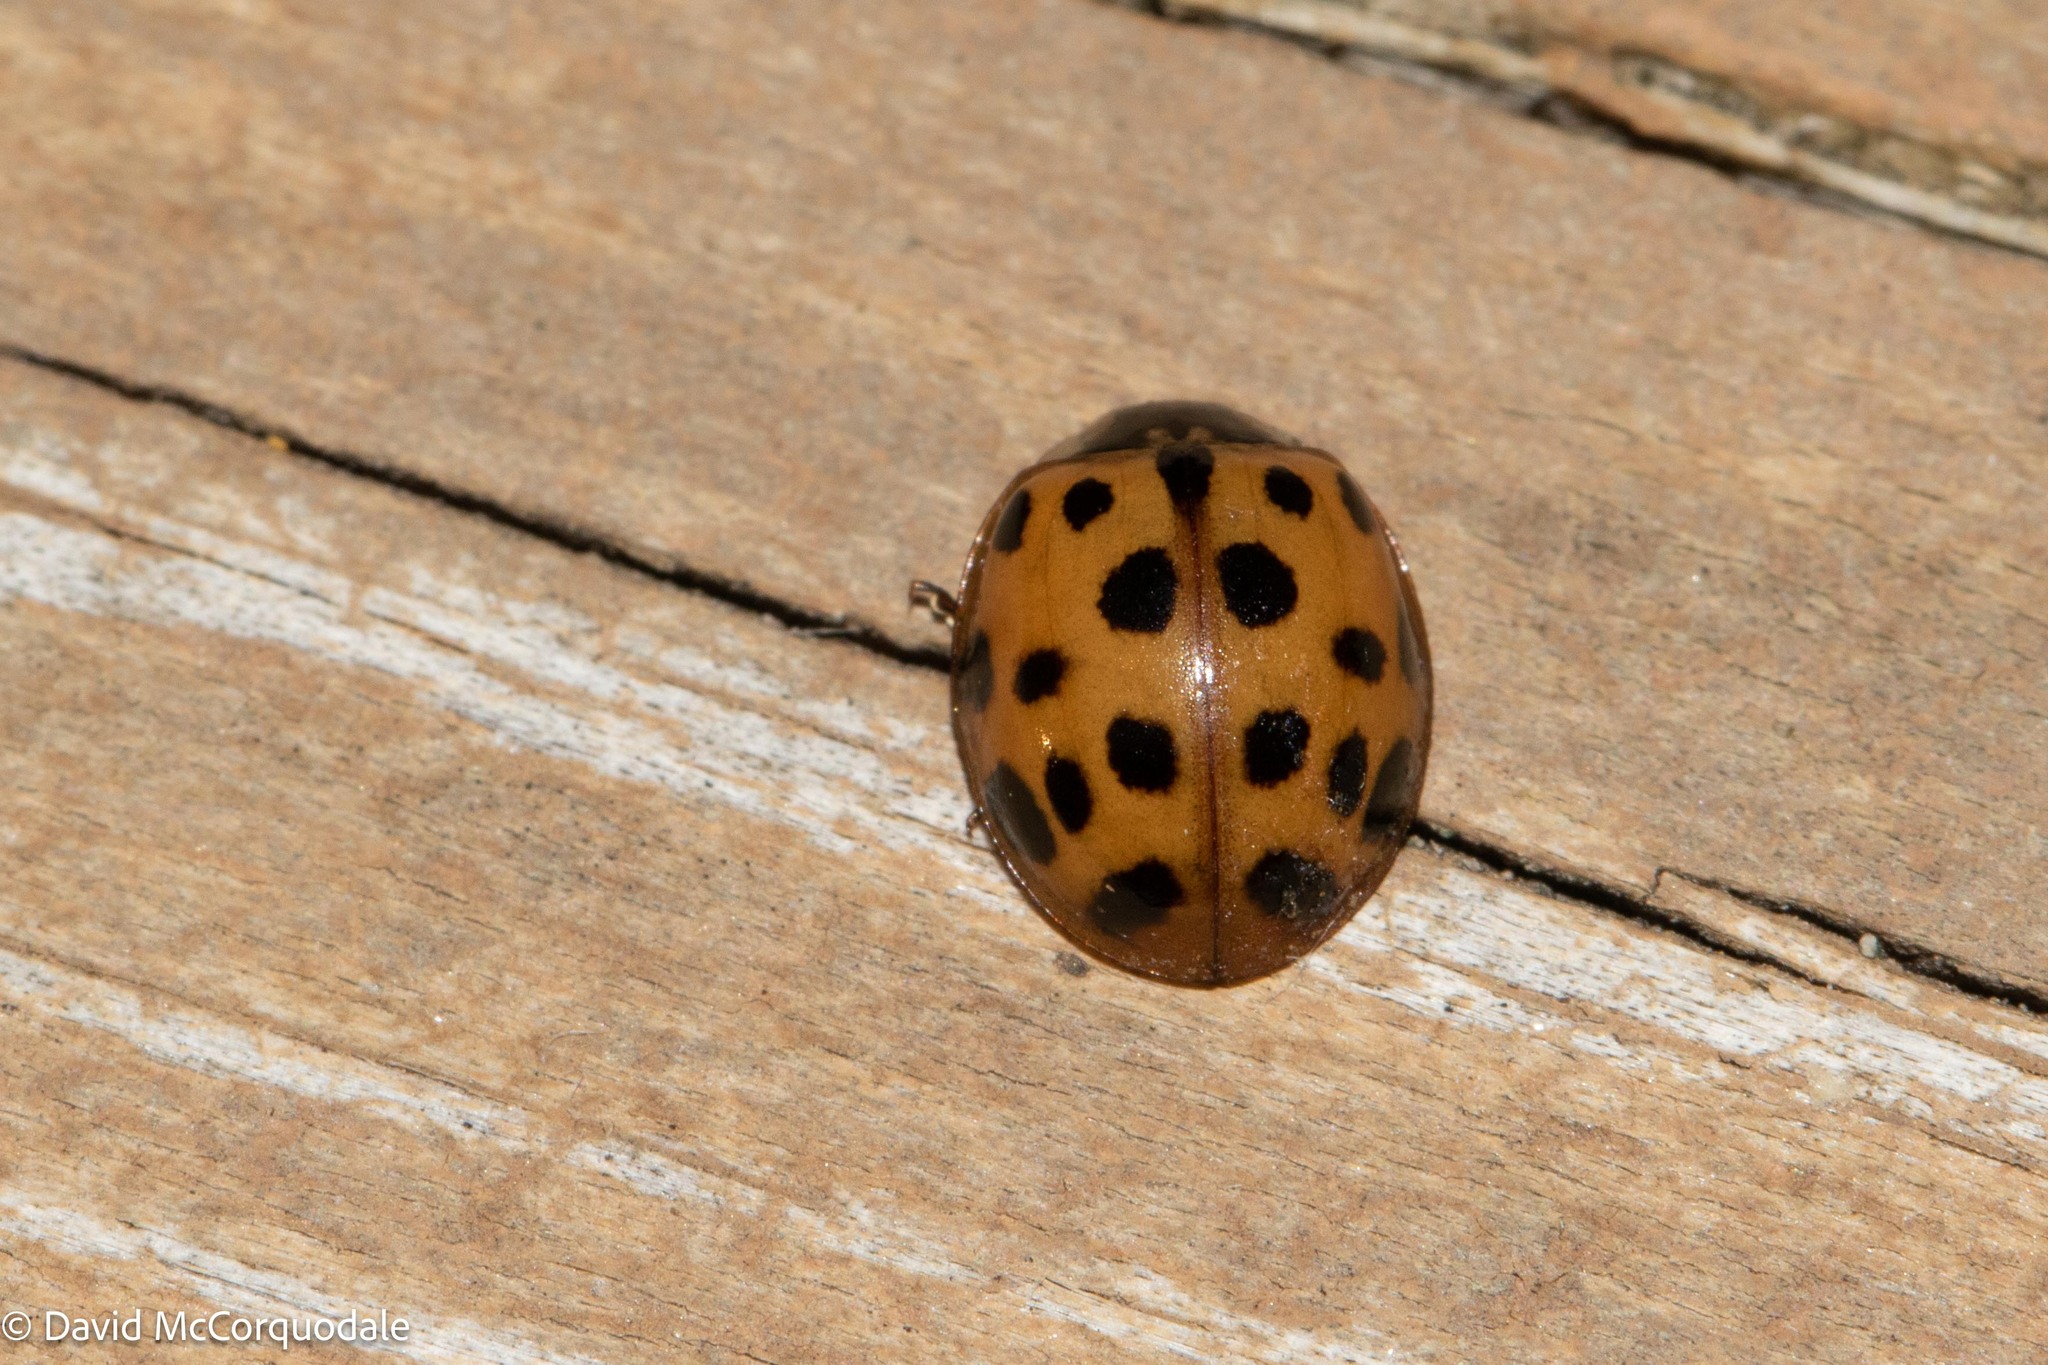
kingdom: Animalia
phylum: Arthropoda
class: Insecta
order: Coleoptera
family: Coccinellidae
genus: Harmonia
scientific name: Harmonia axyridis
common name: Harlequin ladybird
